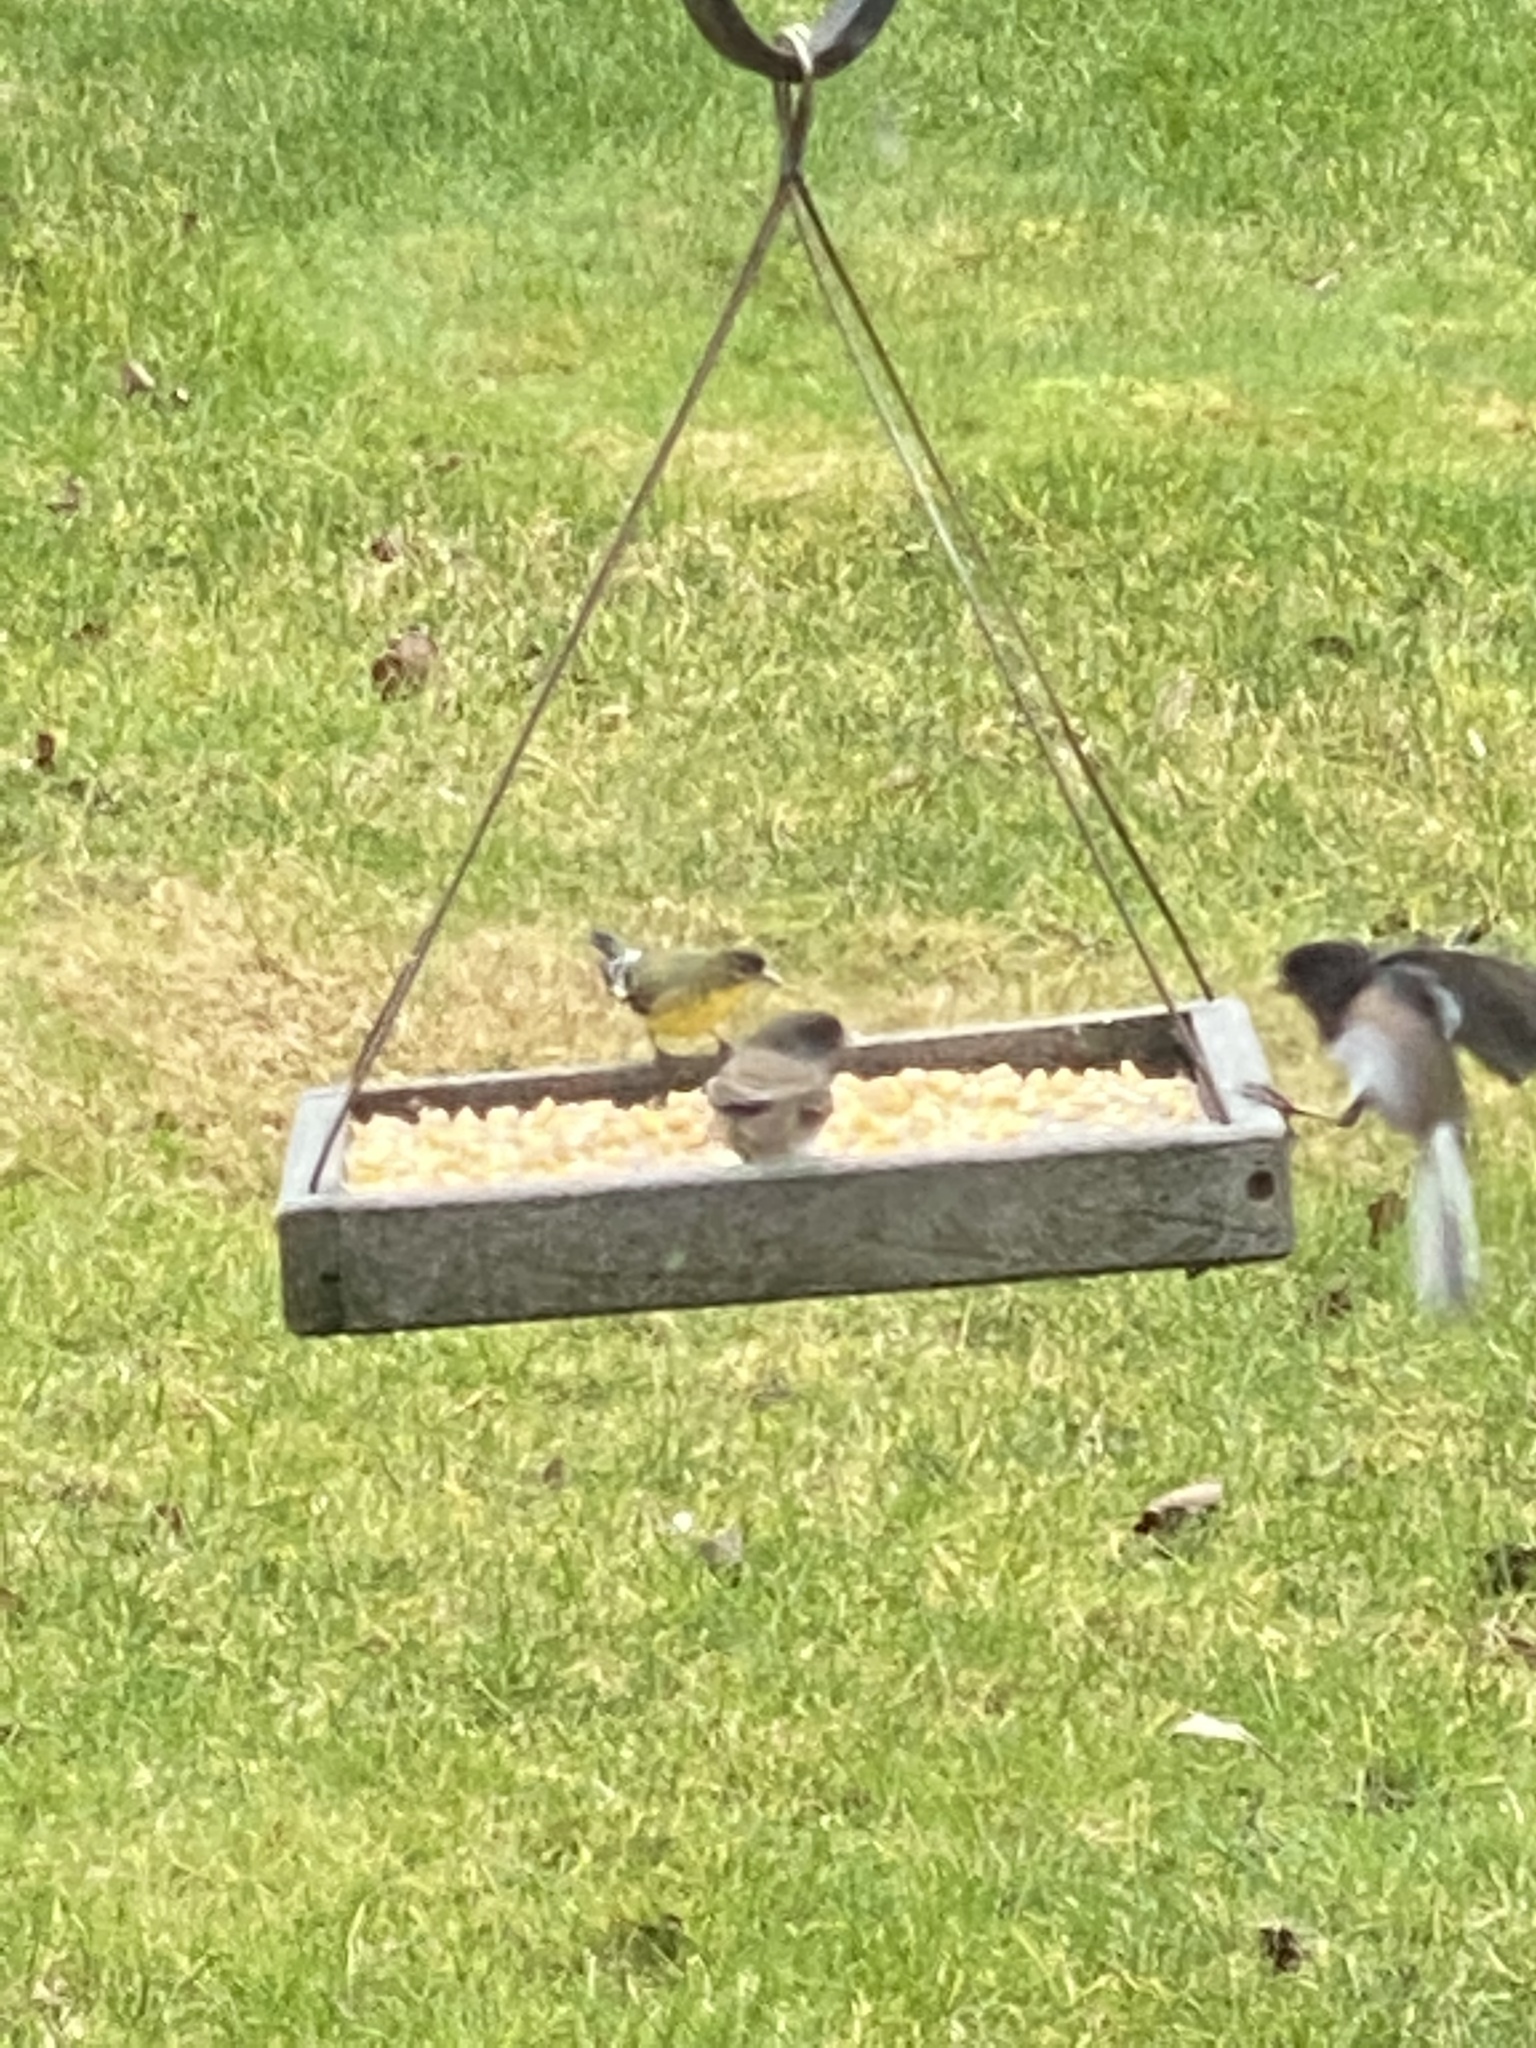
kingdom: Animalia
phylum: Chordata
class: Aves
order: Passeriformes
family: Passerellidae
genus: Junco
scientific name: Junco hyemalis
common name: Dark-eyed junco
